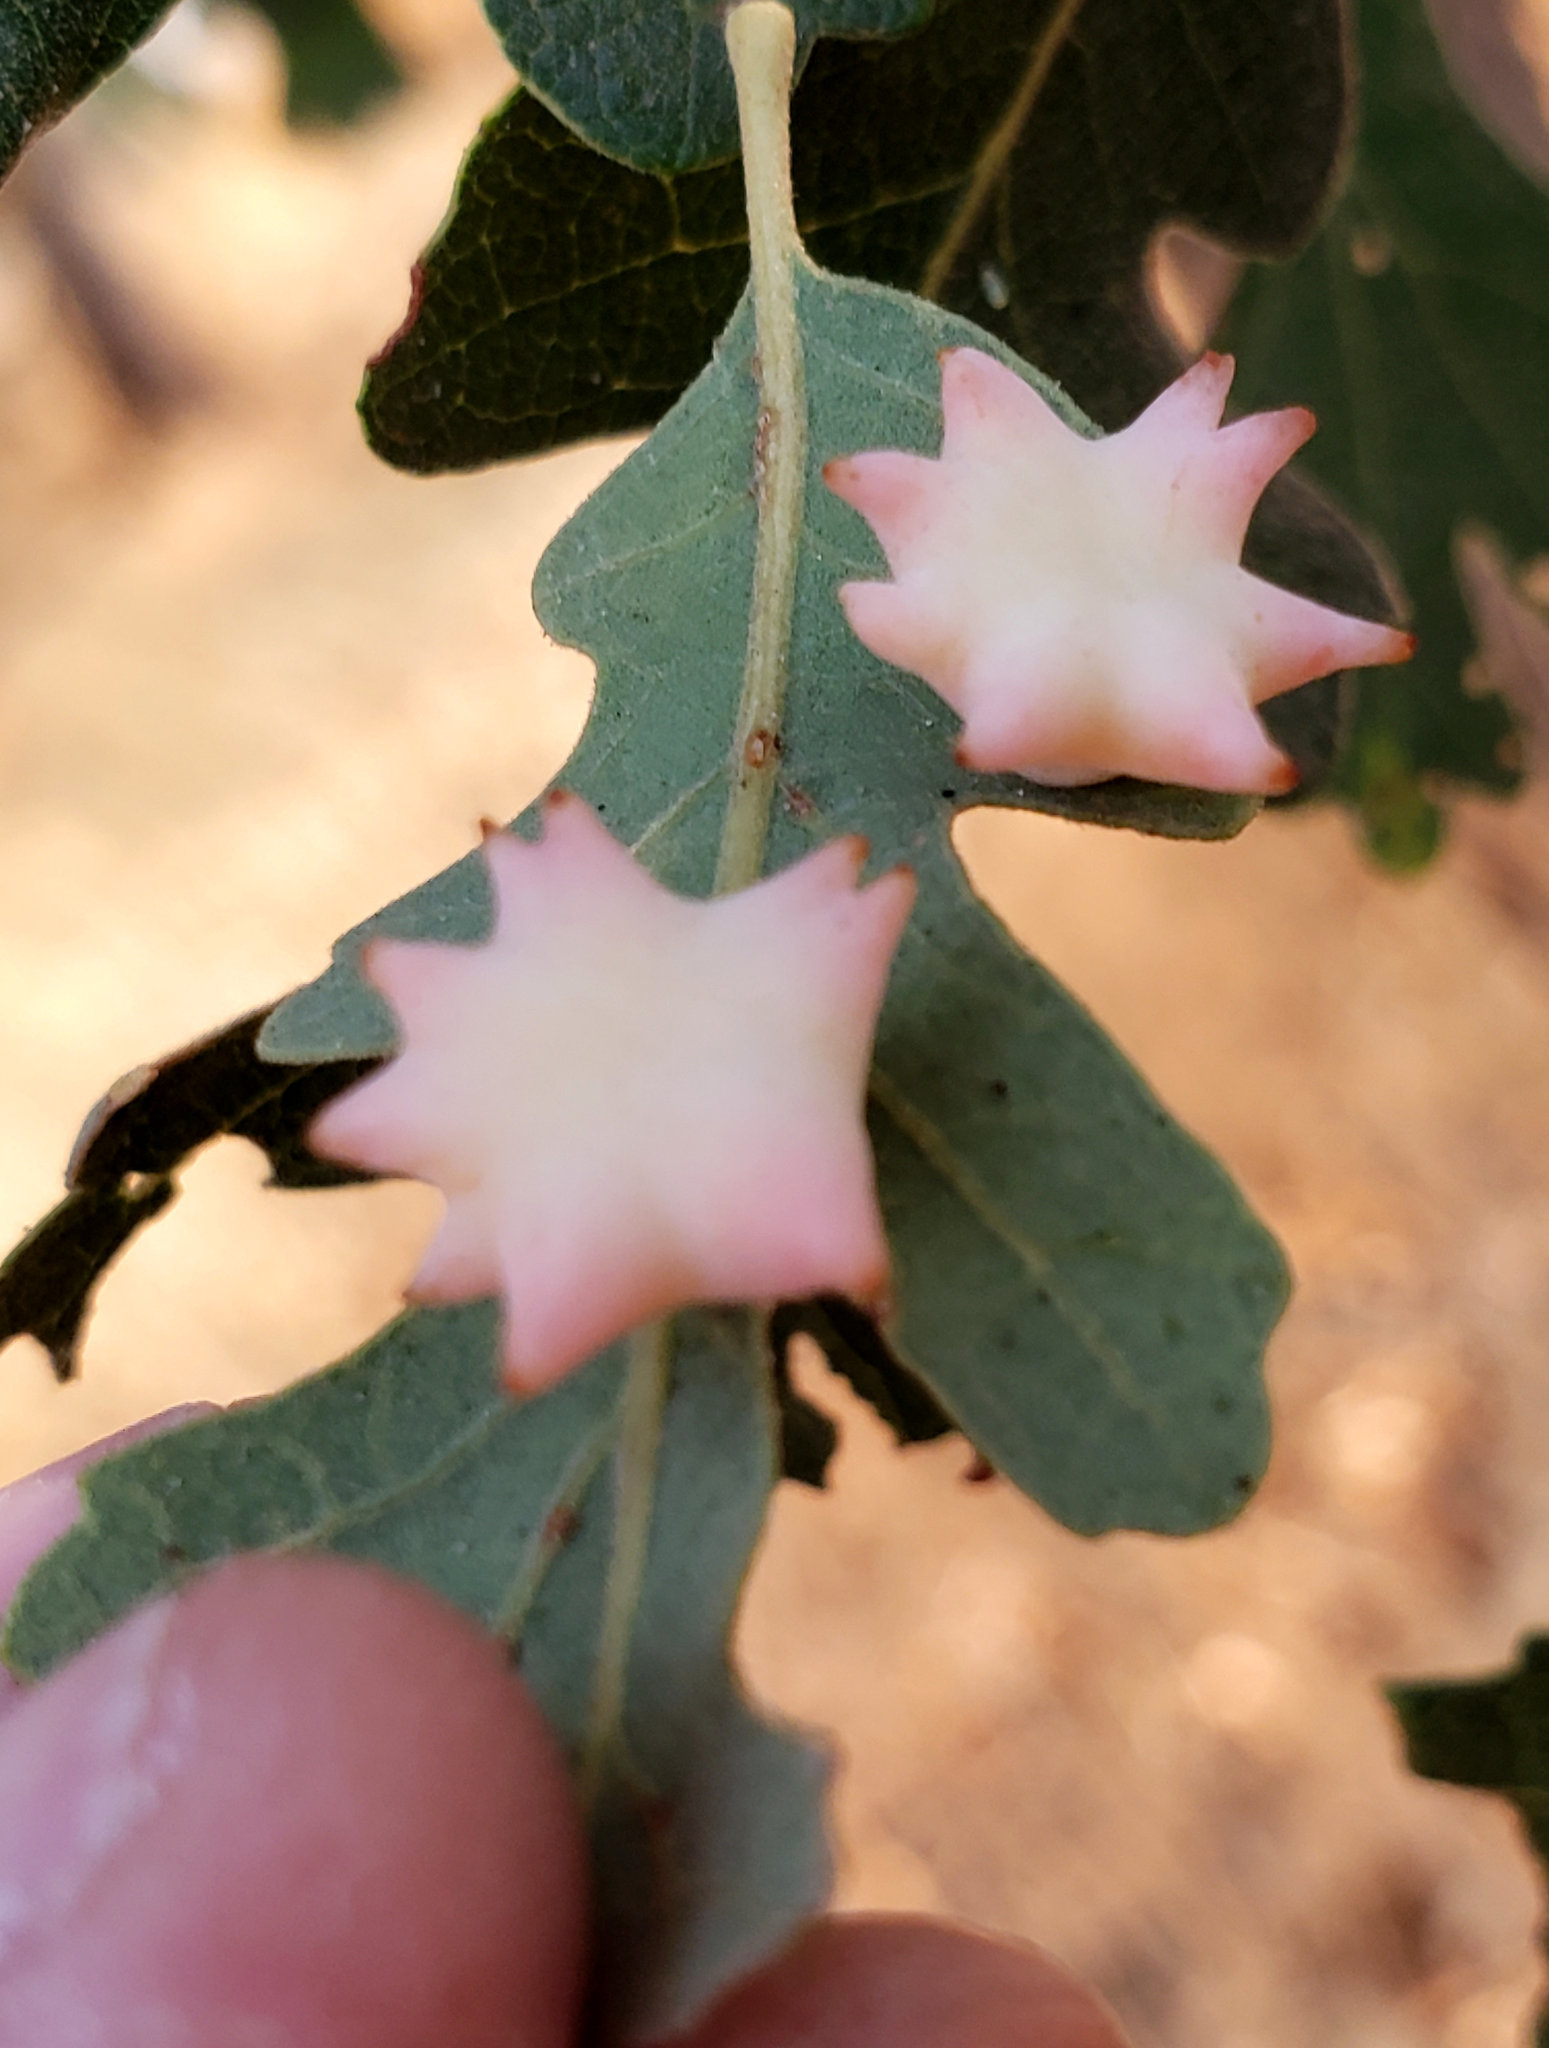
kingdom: Animalia
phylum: Arthropoda
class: Insecta
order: Hymenoptera
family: Cynipidae
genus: Cynips
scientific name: Cynips douglasi
